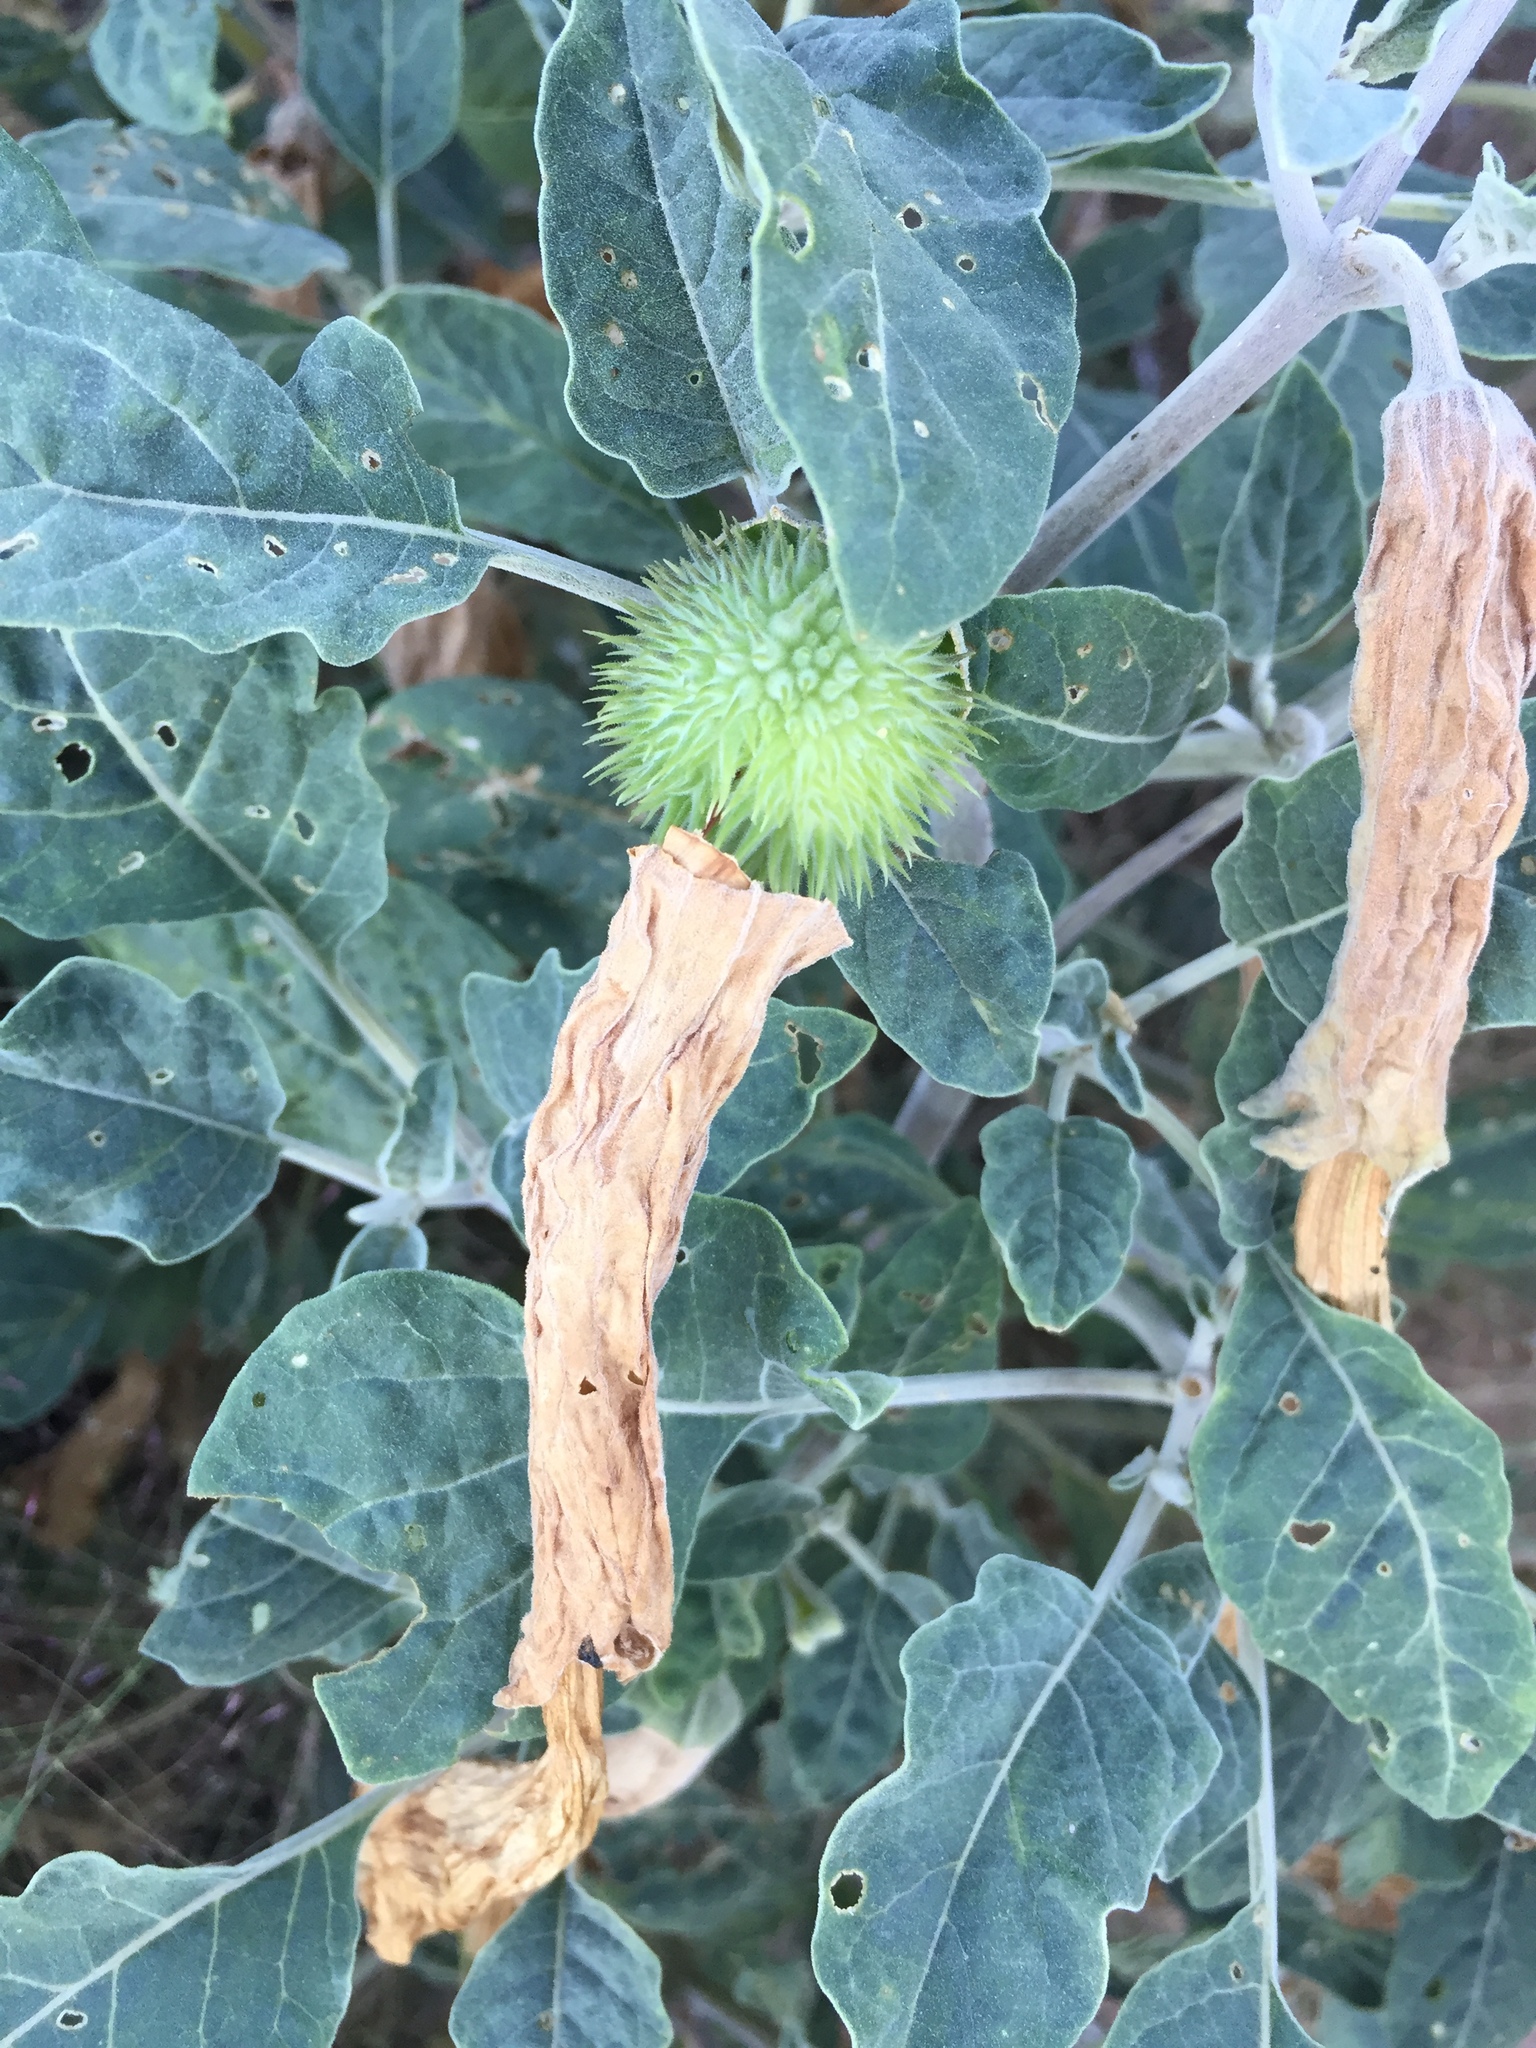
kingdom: Plantae
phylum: Tracheophyta
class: Magnoliopsida
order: Solanales
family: Solanaceae
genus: Datura
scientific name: Datura wrightii
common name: Sacred thorn-apple
